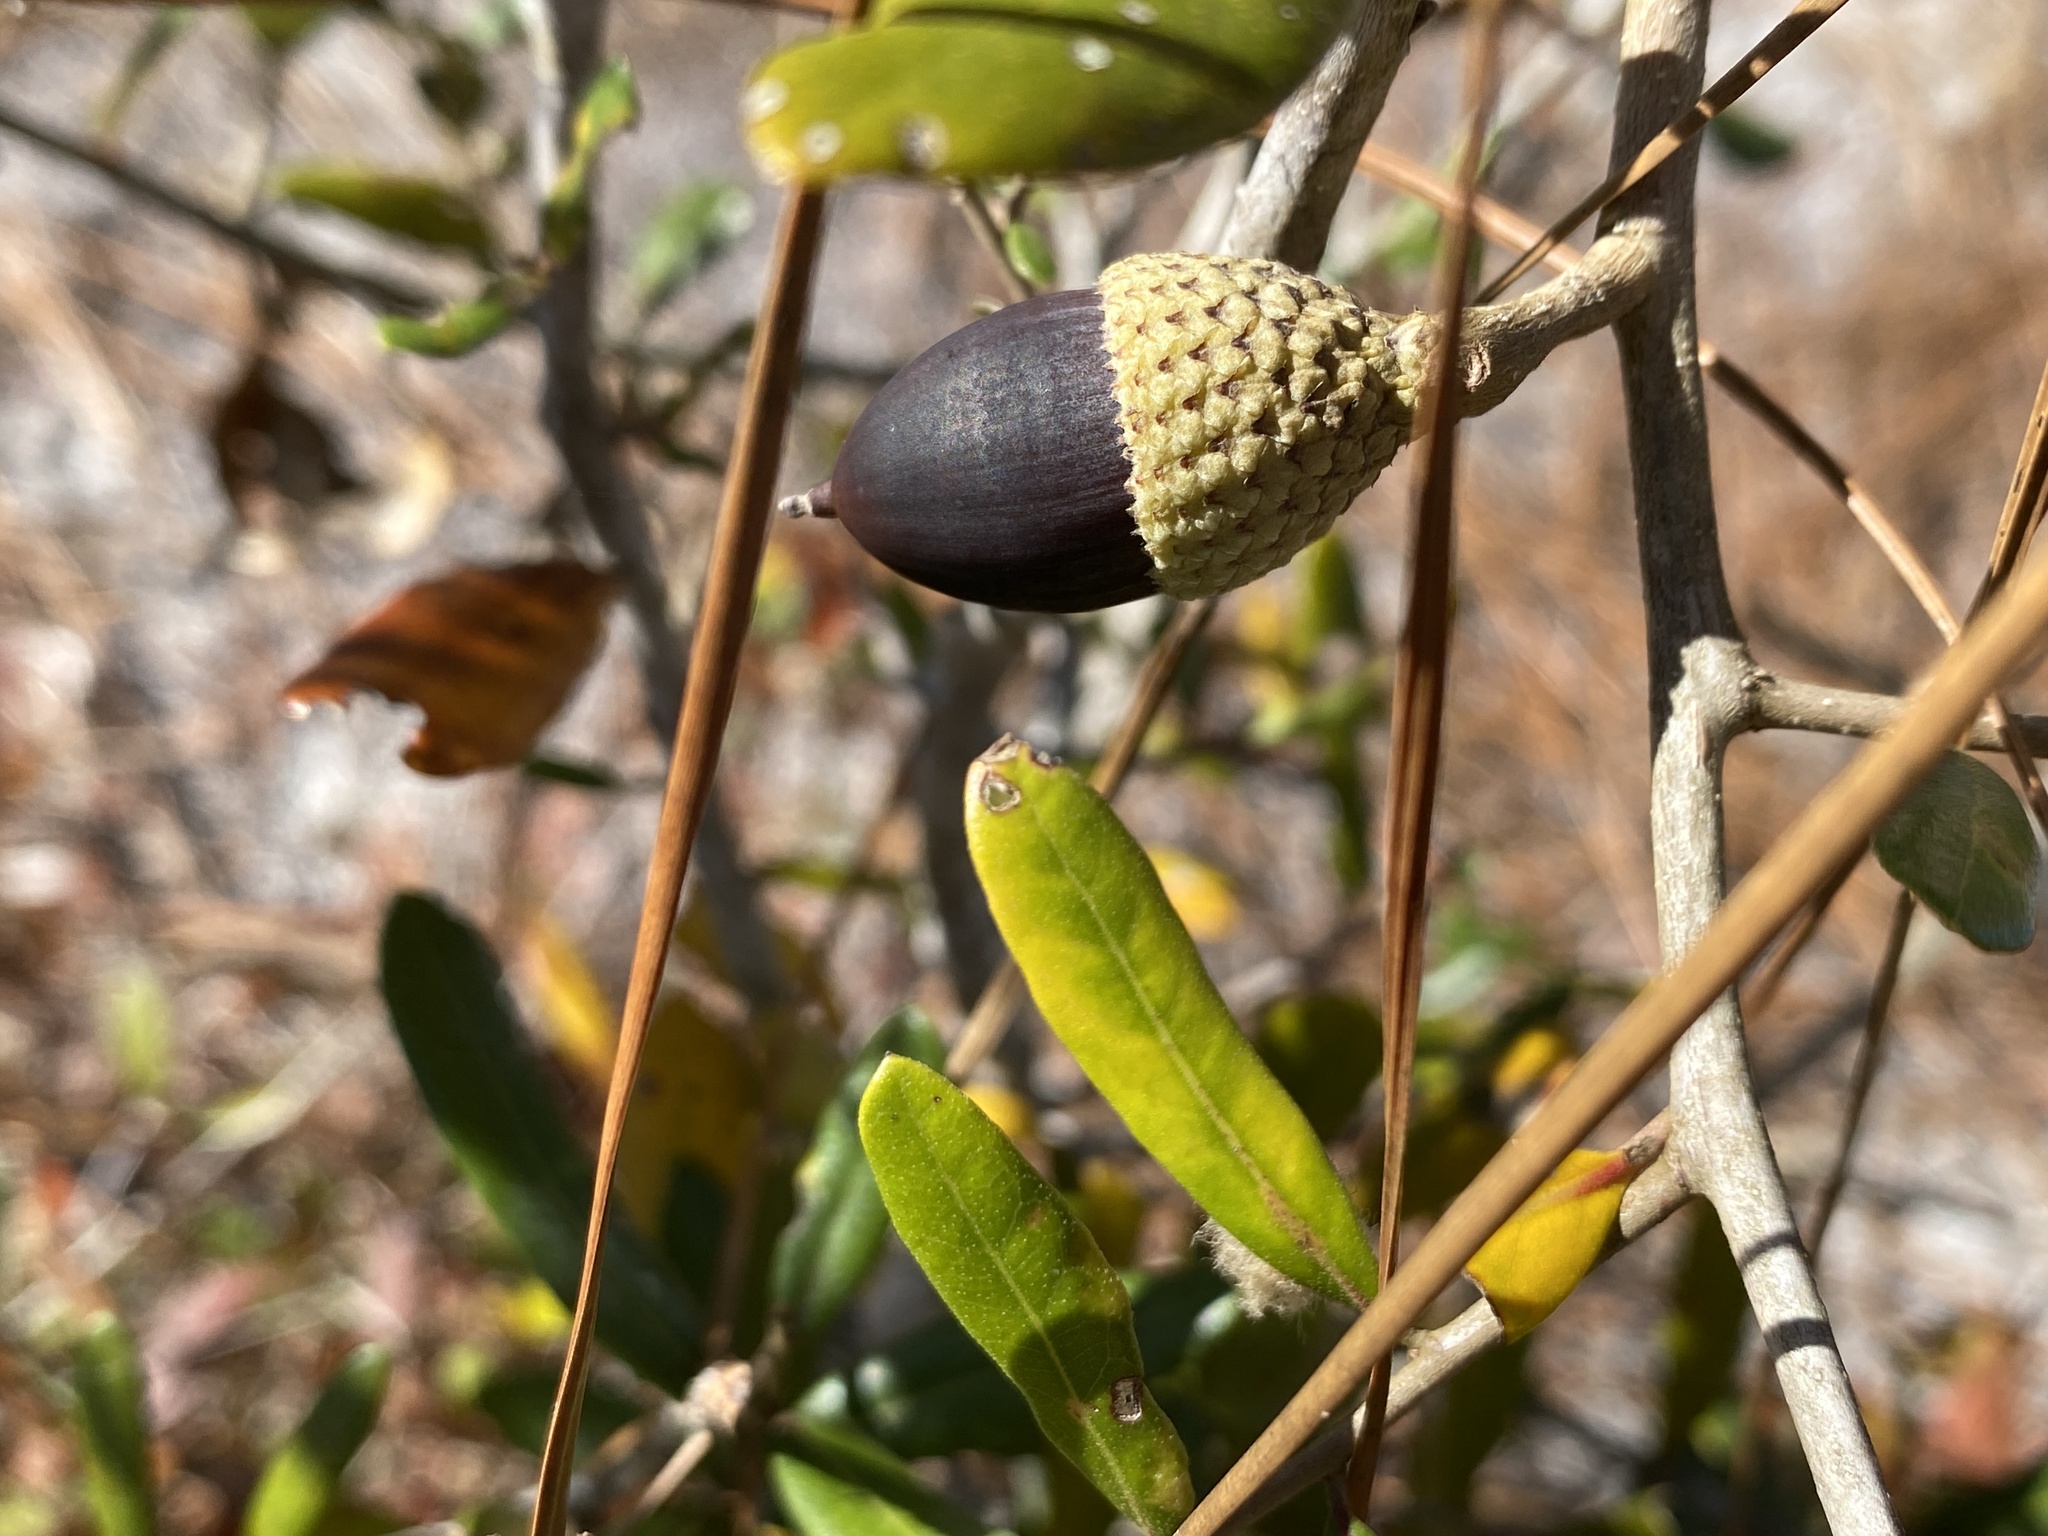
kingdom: Plantae
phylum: Tracheophyta
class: Magnoliopsida
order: Fagales
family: Fagaceae
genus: Quercus
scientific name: Quercus geminata
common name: Sand live oak
